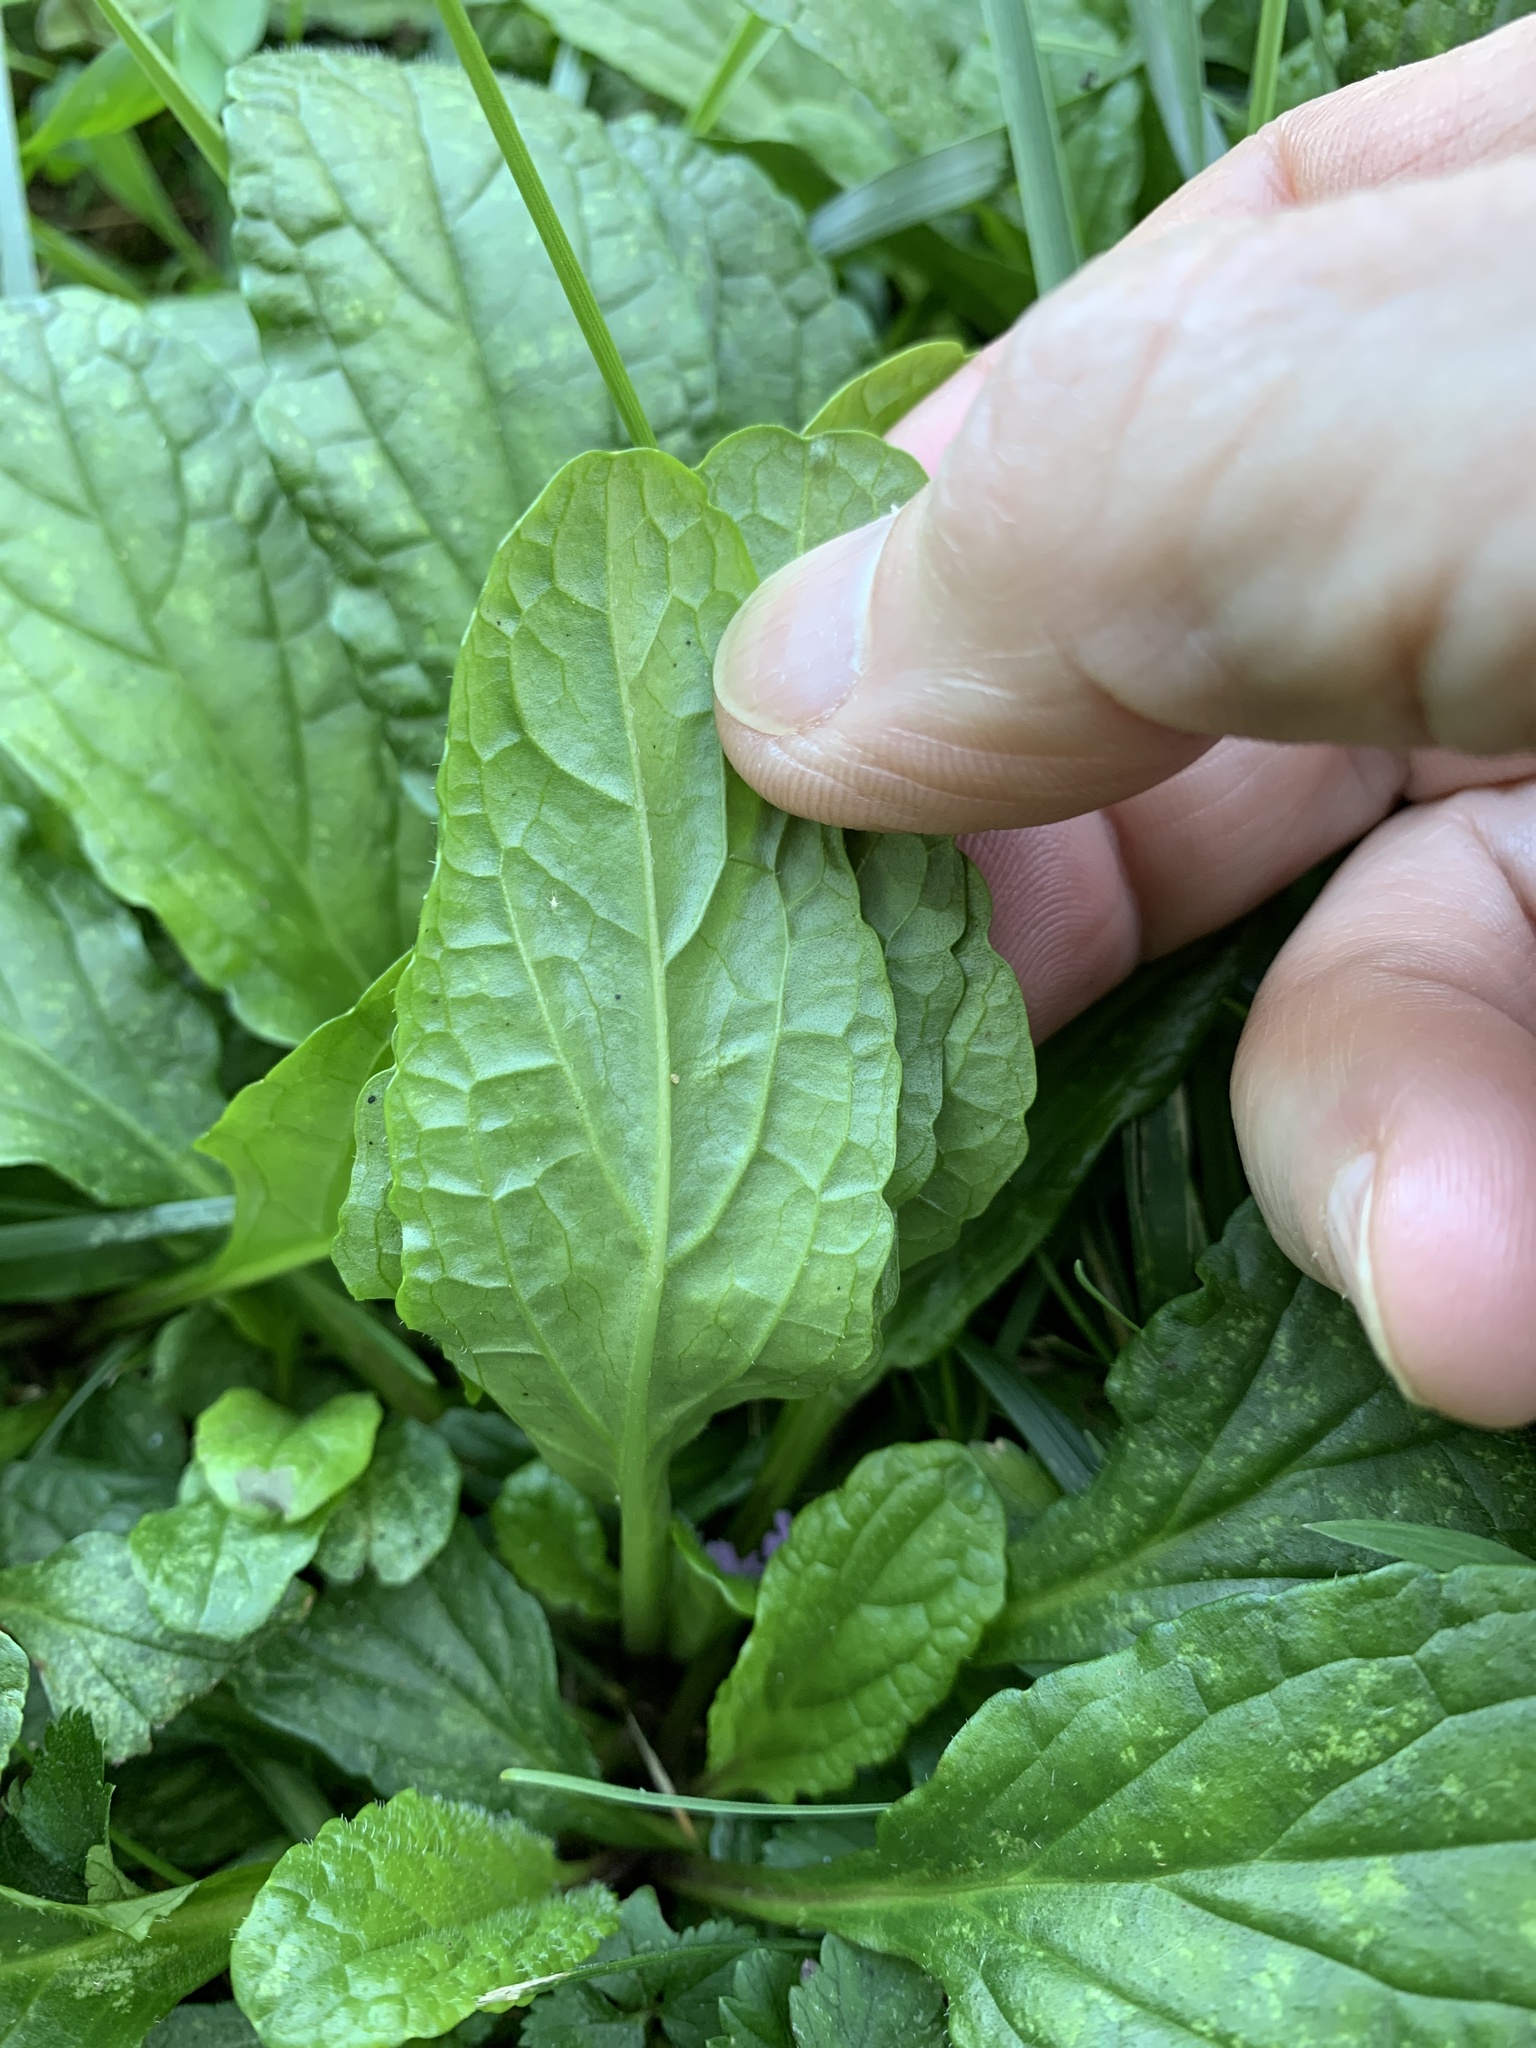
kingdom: Plantae
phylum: Tracheophyta
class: Magnoliopsida
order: Lamiales
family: Lamiaceae
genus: Ajuga
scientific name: Ajuga reptans
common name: Bugle
